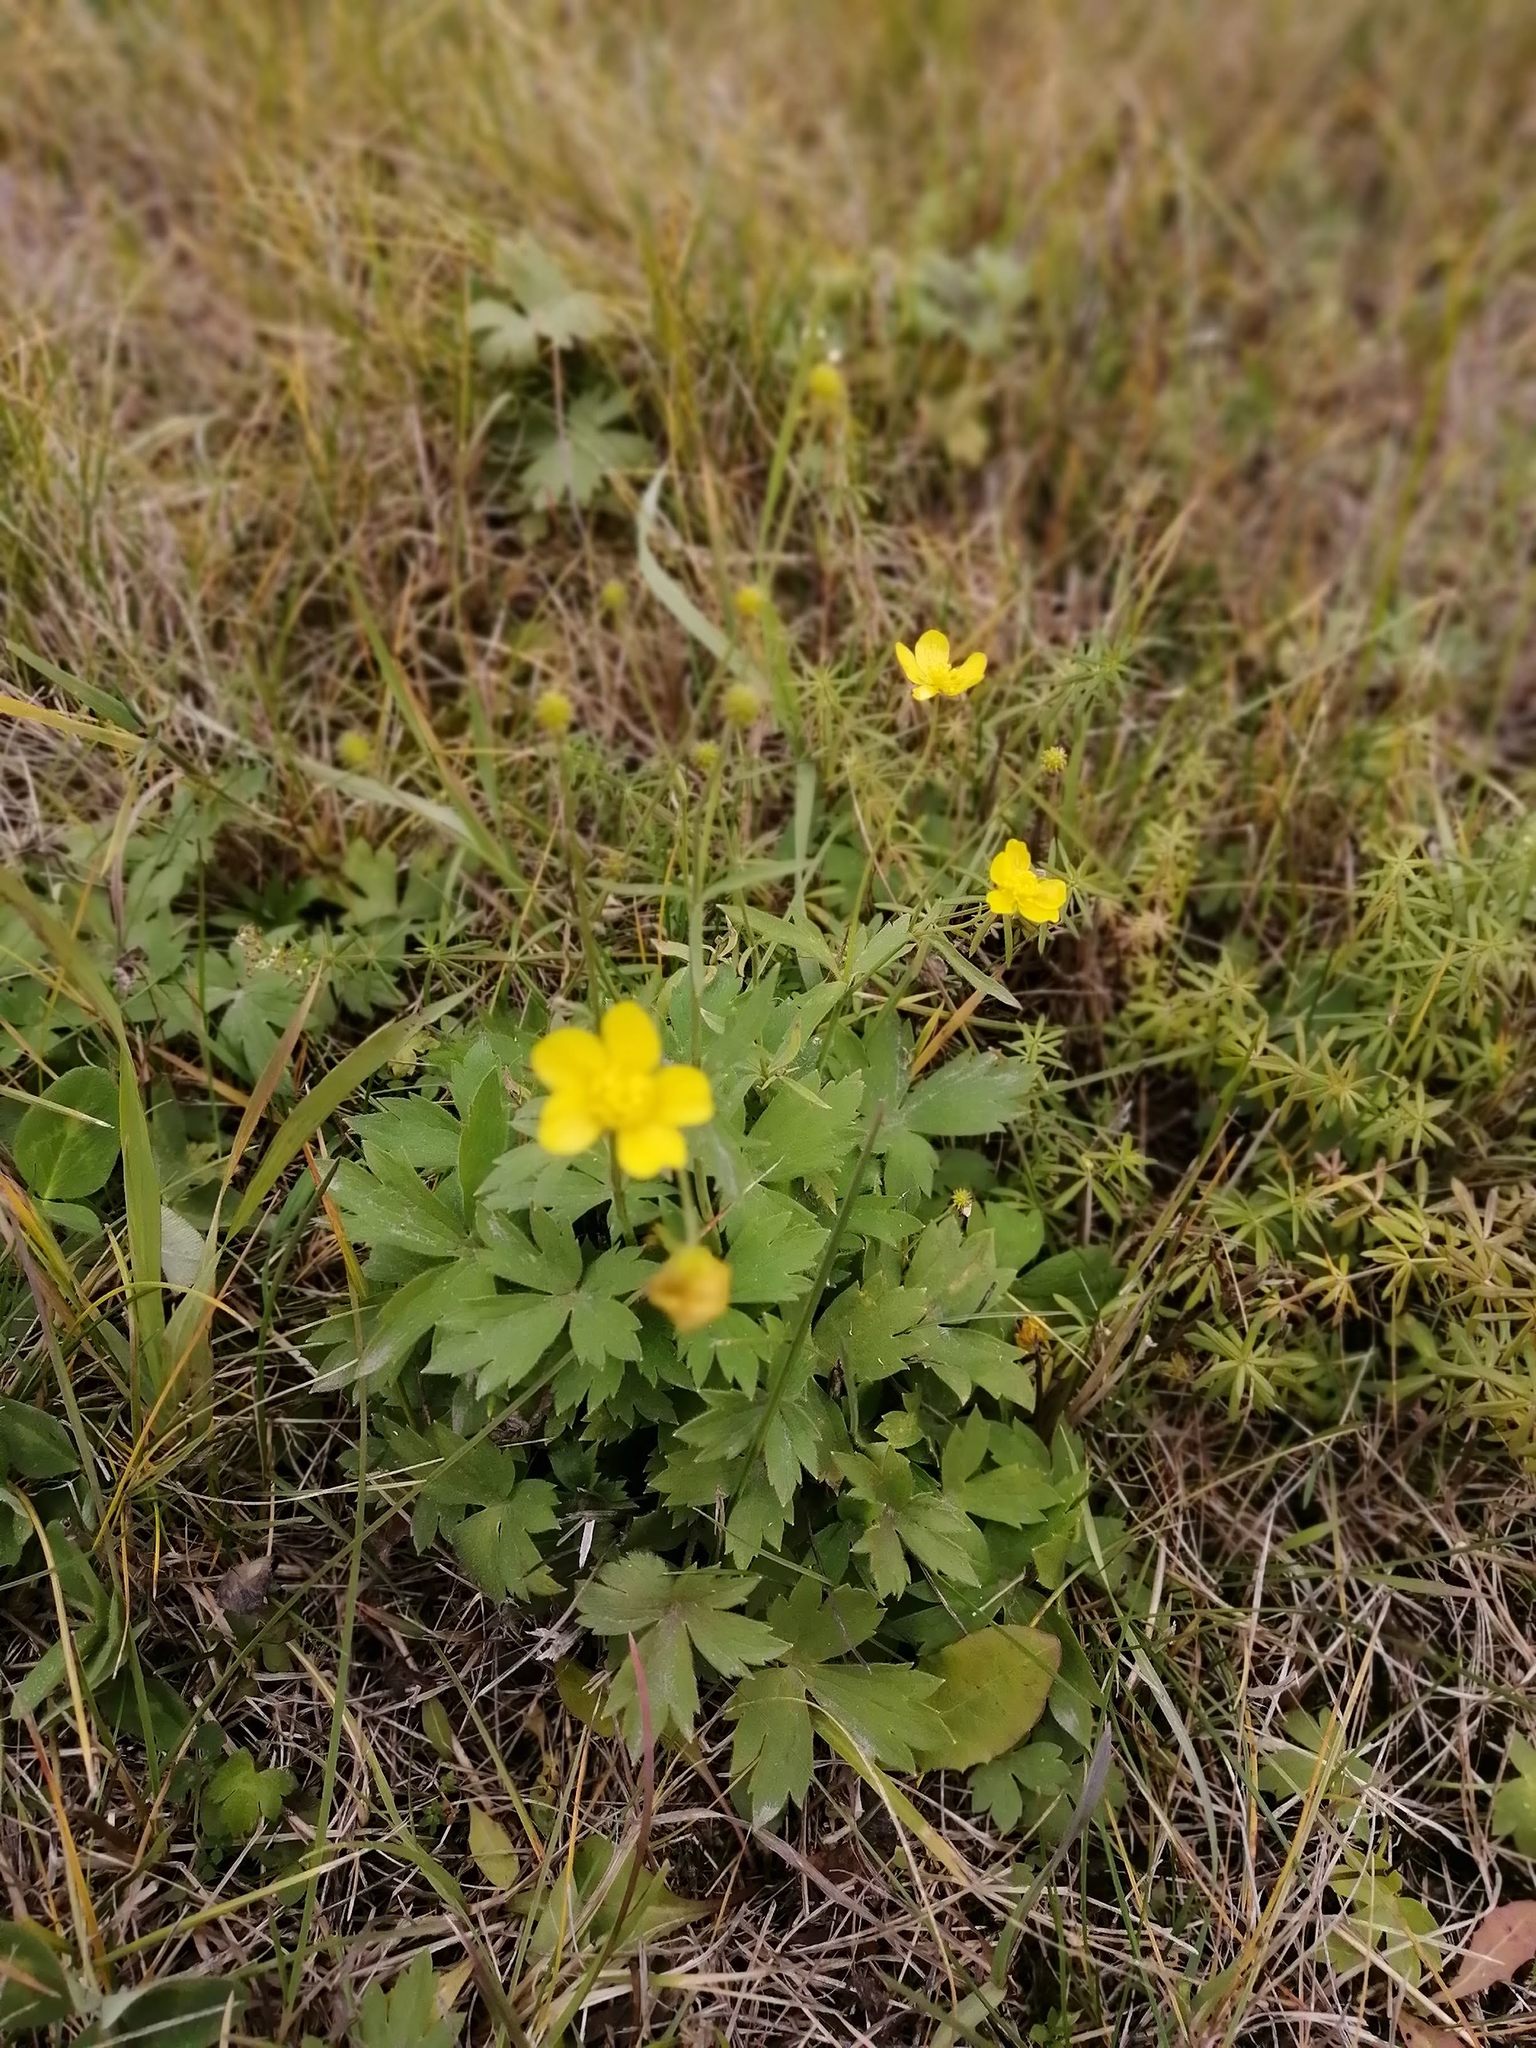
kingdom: Plantae
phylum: Tracheophyta
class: Magnoliopsida
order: Ranunculales
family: Ranunculaceae
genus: Ranunculus
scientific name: Ranunculus propinquus
